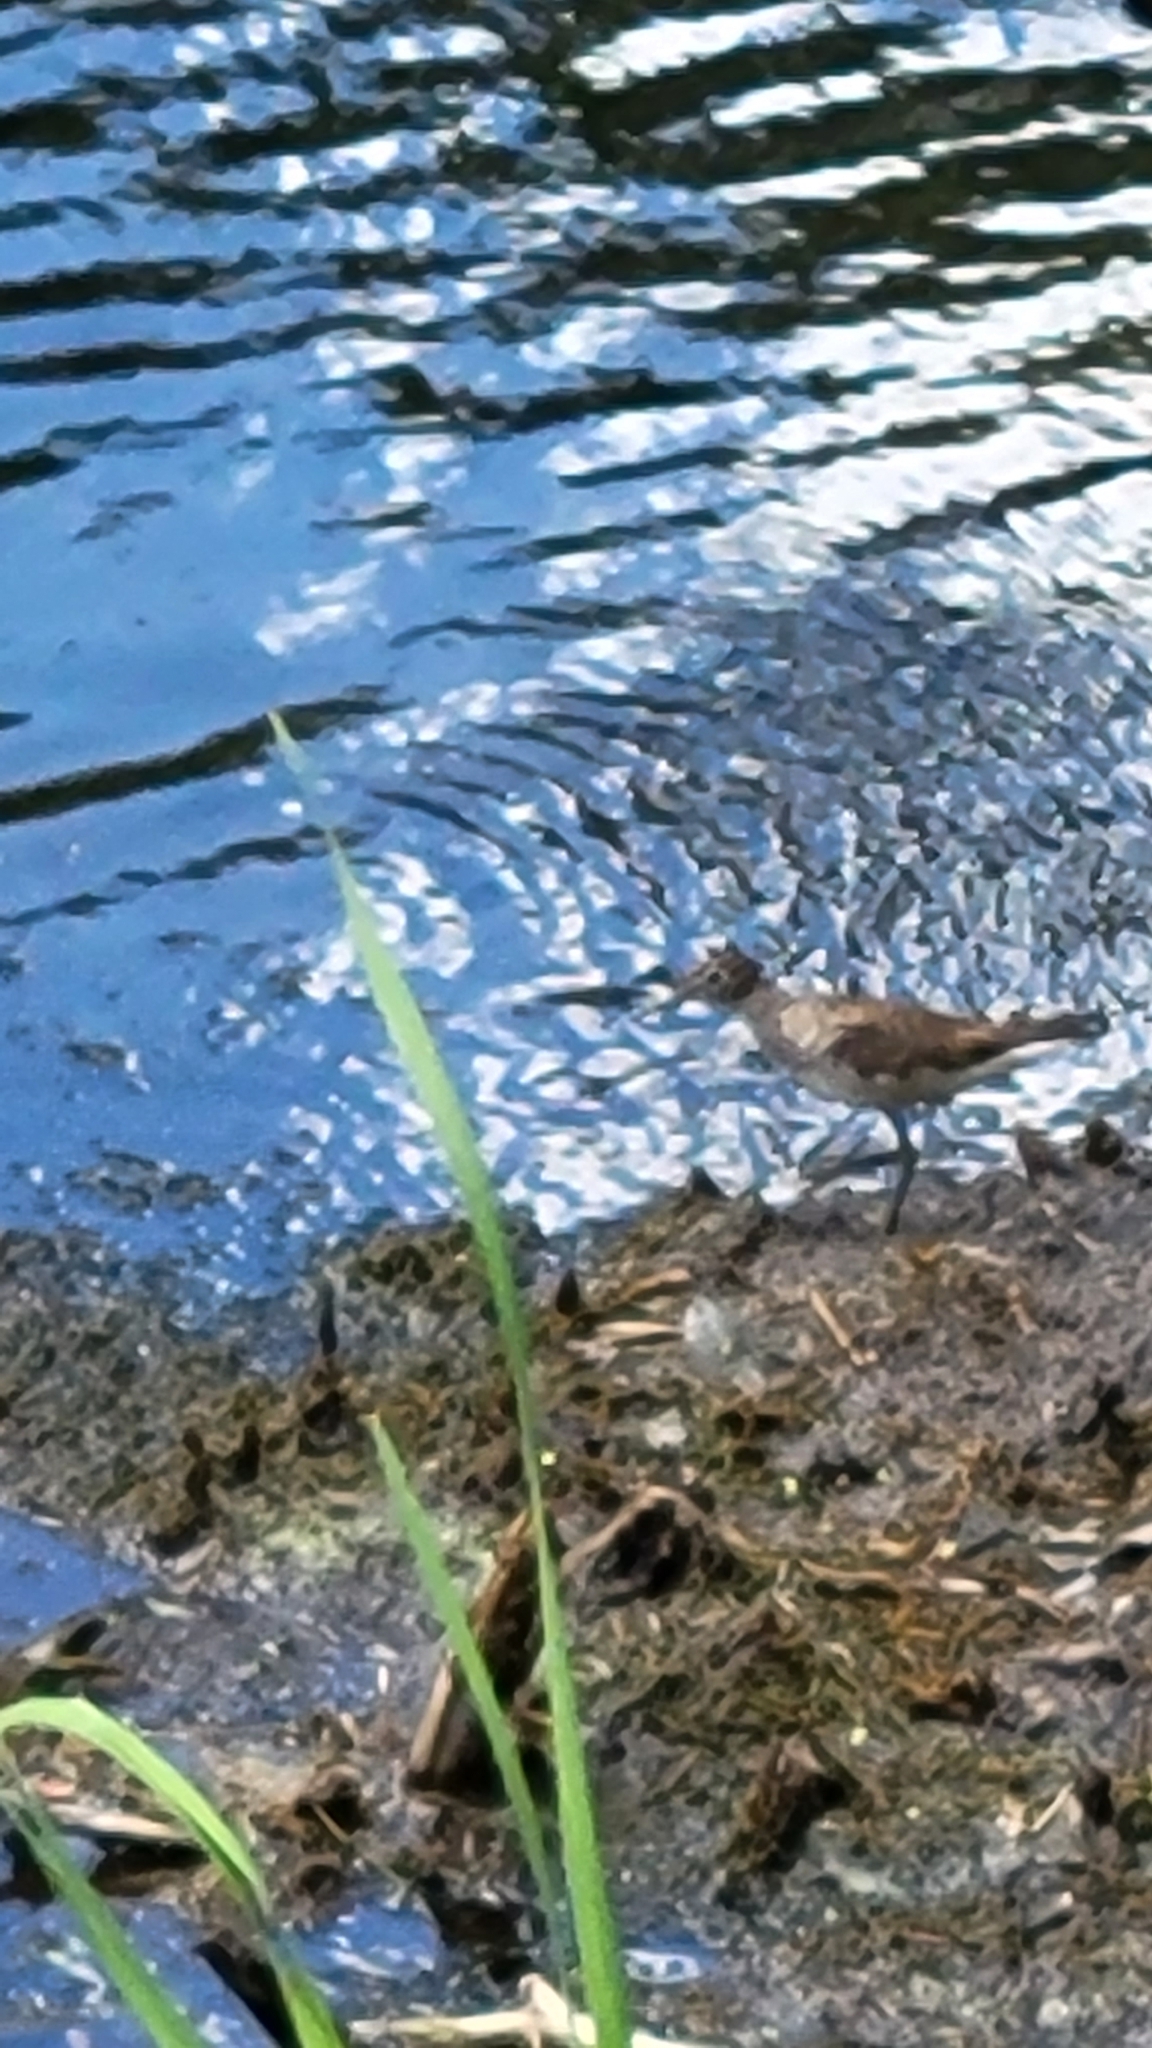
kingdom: Animalia
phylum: Chordata
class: Aves
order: Charadriiformes
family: Scolopacidae
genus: Tringa
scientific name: Tringa solitaria
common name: Solitary sandpiper
